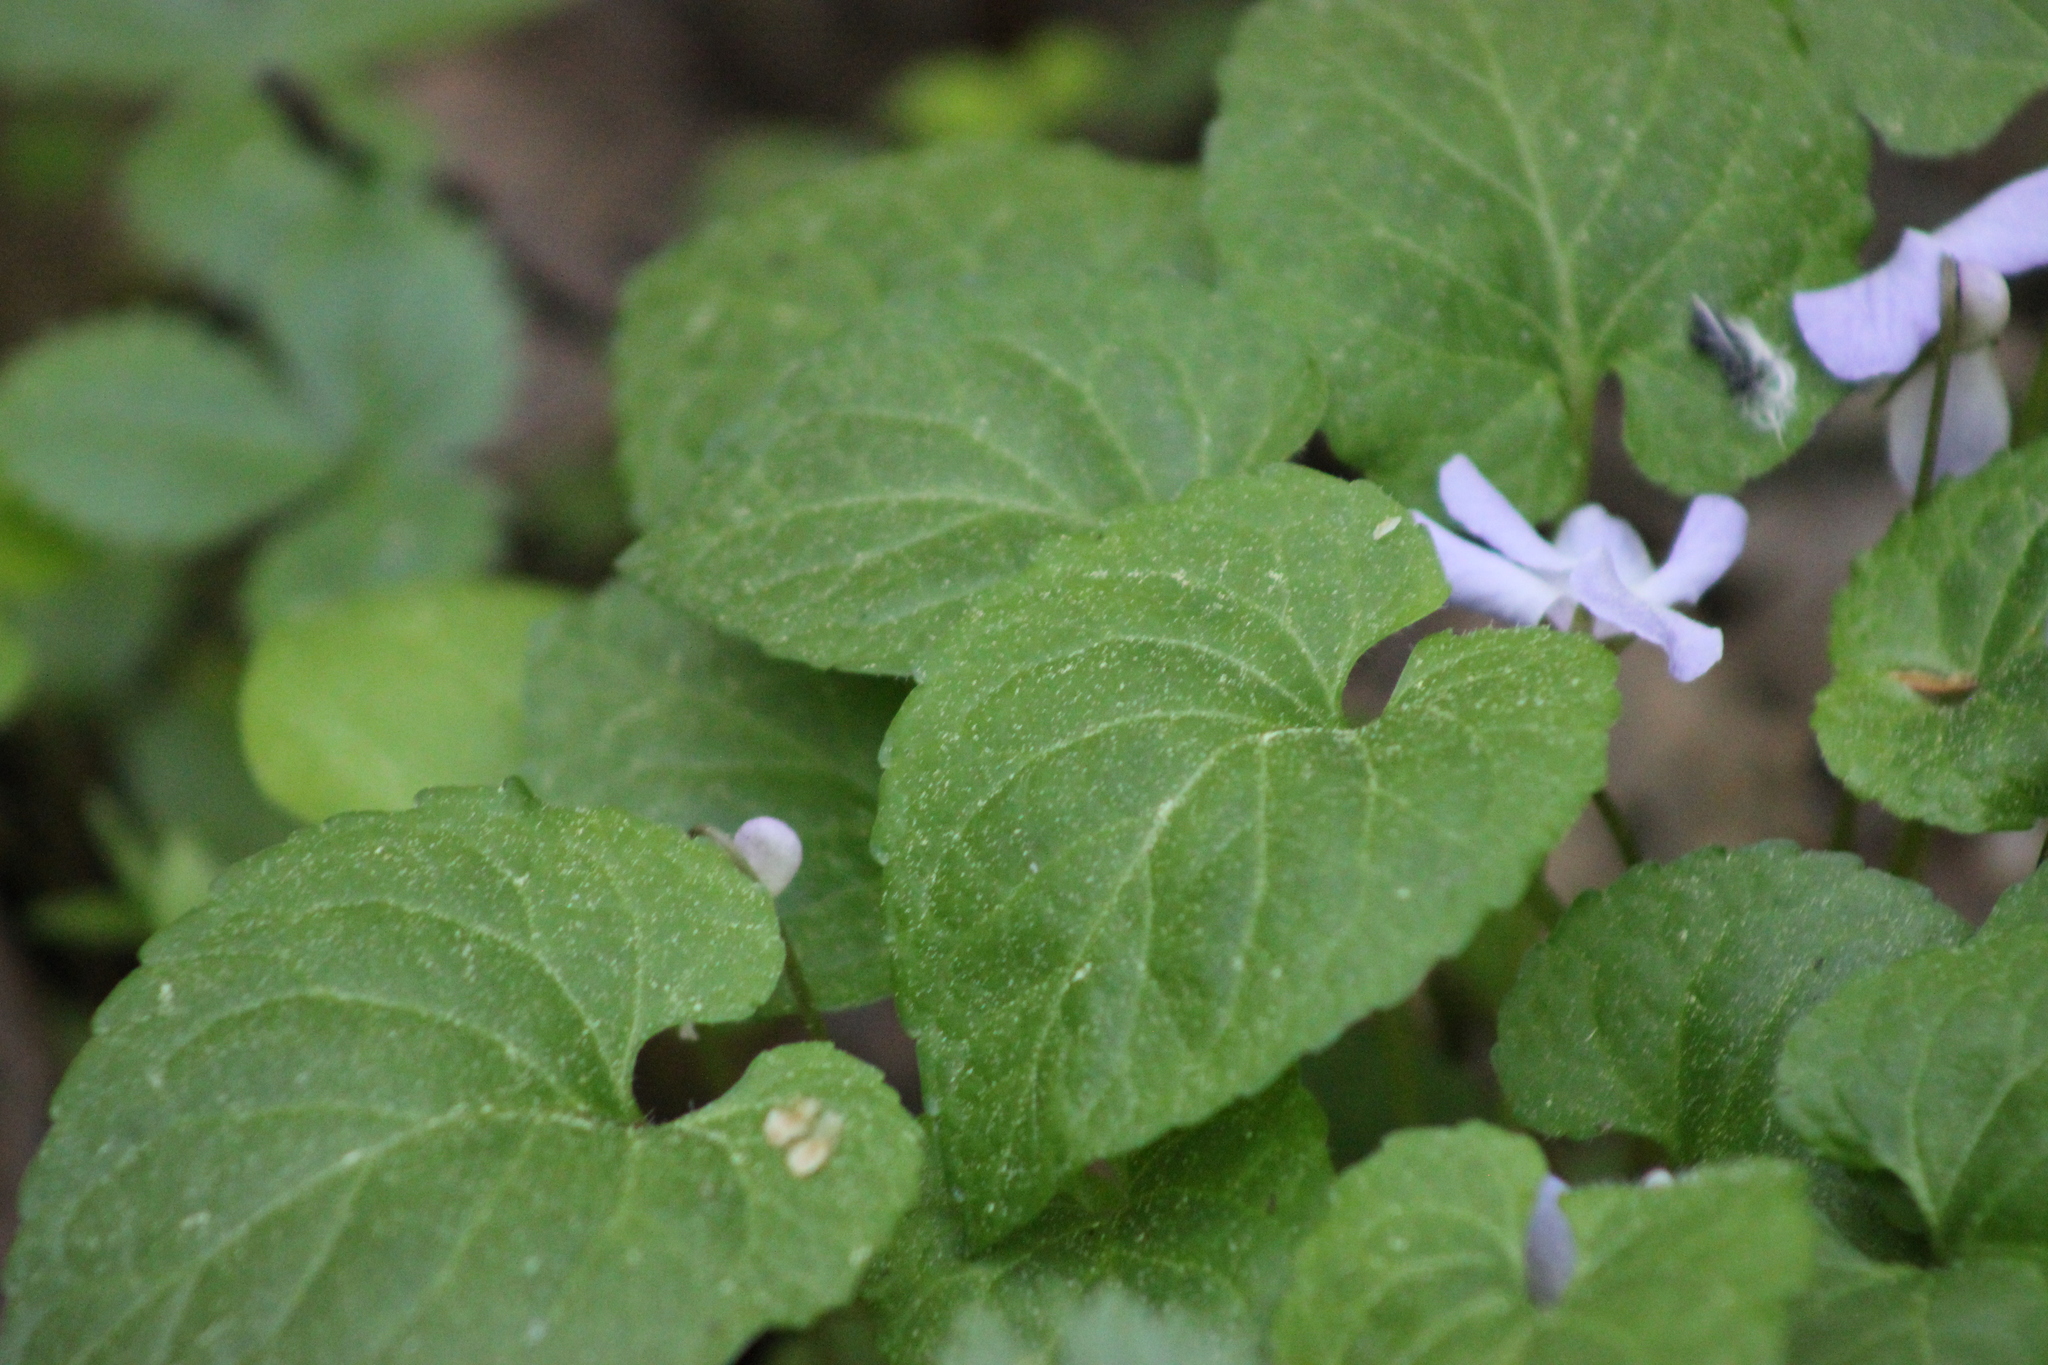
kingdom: Plantae
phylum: Tracheophyta
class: Magnoliopsida
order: Malpighiales
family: Violaceae
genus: Viola
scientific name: Viola selkirkii
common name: Selkirk's violet
